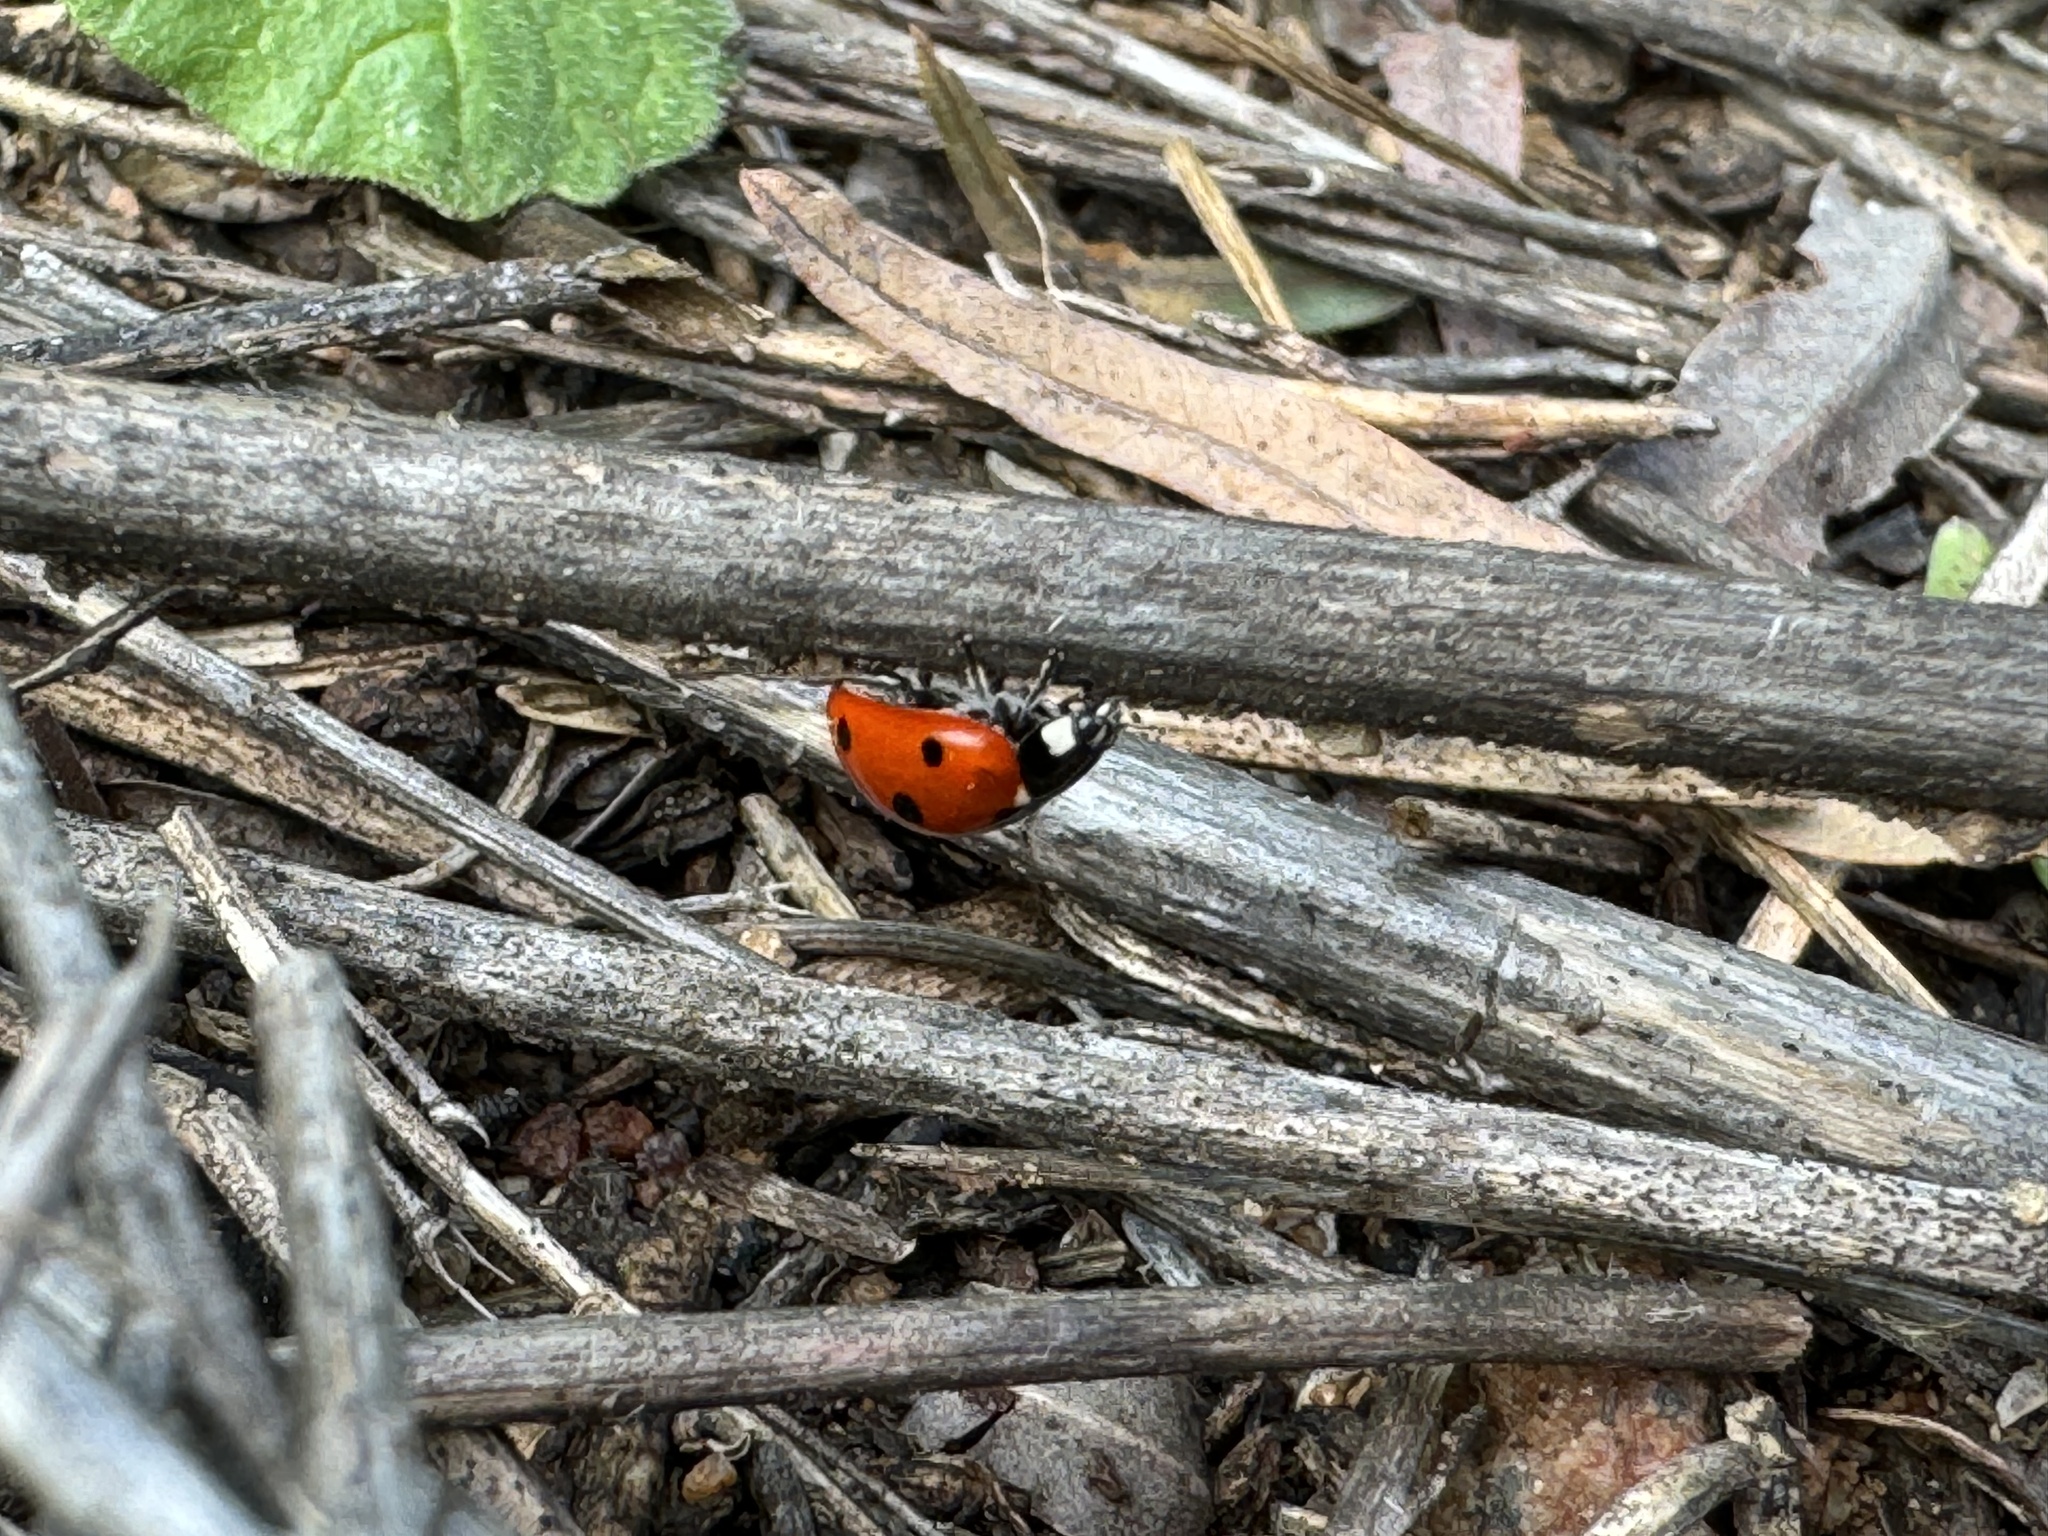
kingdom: Animalia
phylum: Arthropoda
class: Insecta
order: Coleoptera
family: Coccinellidae
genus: Coccinella
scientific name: Coccinella septempunctata
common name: Sevenspotted lady beetle
